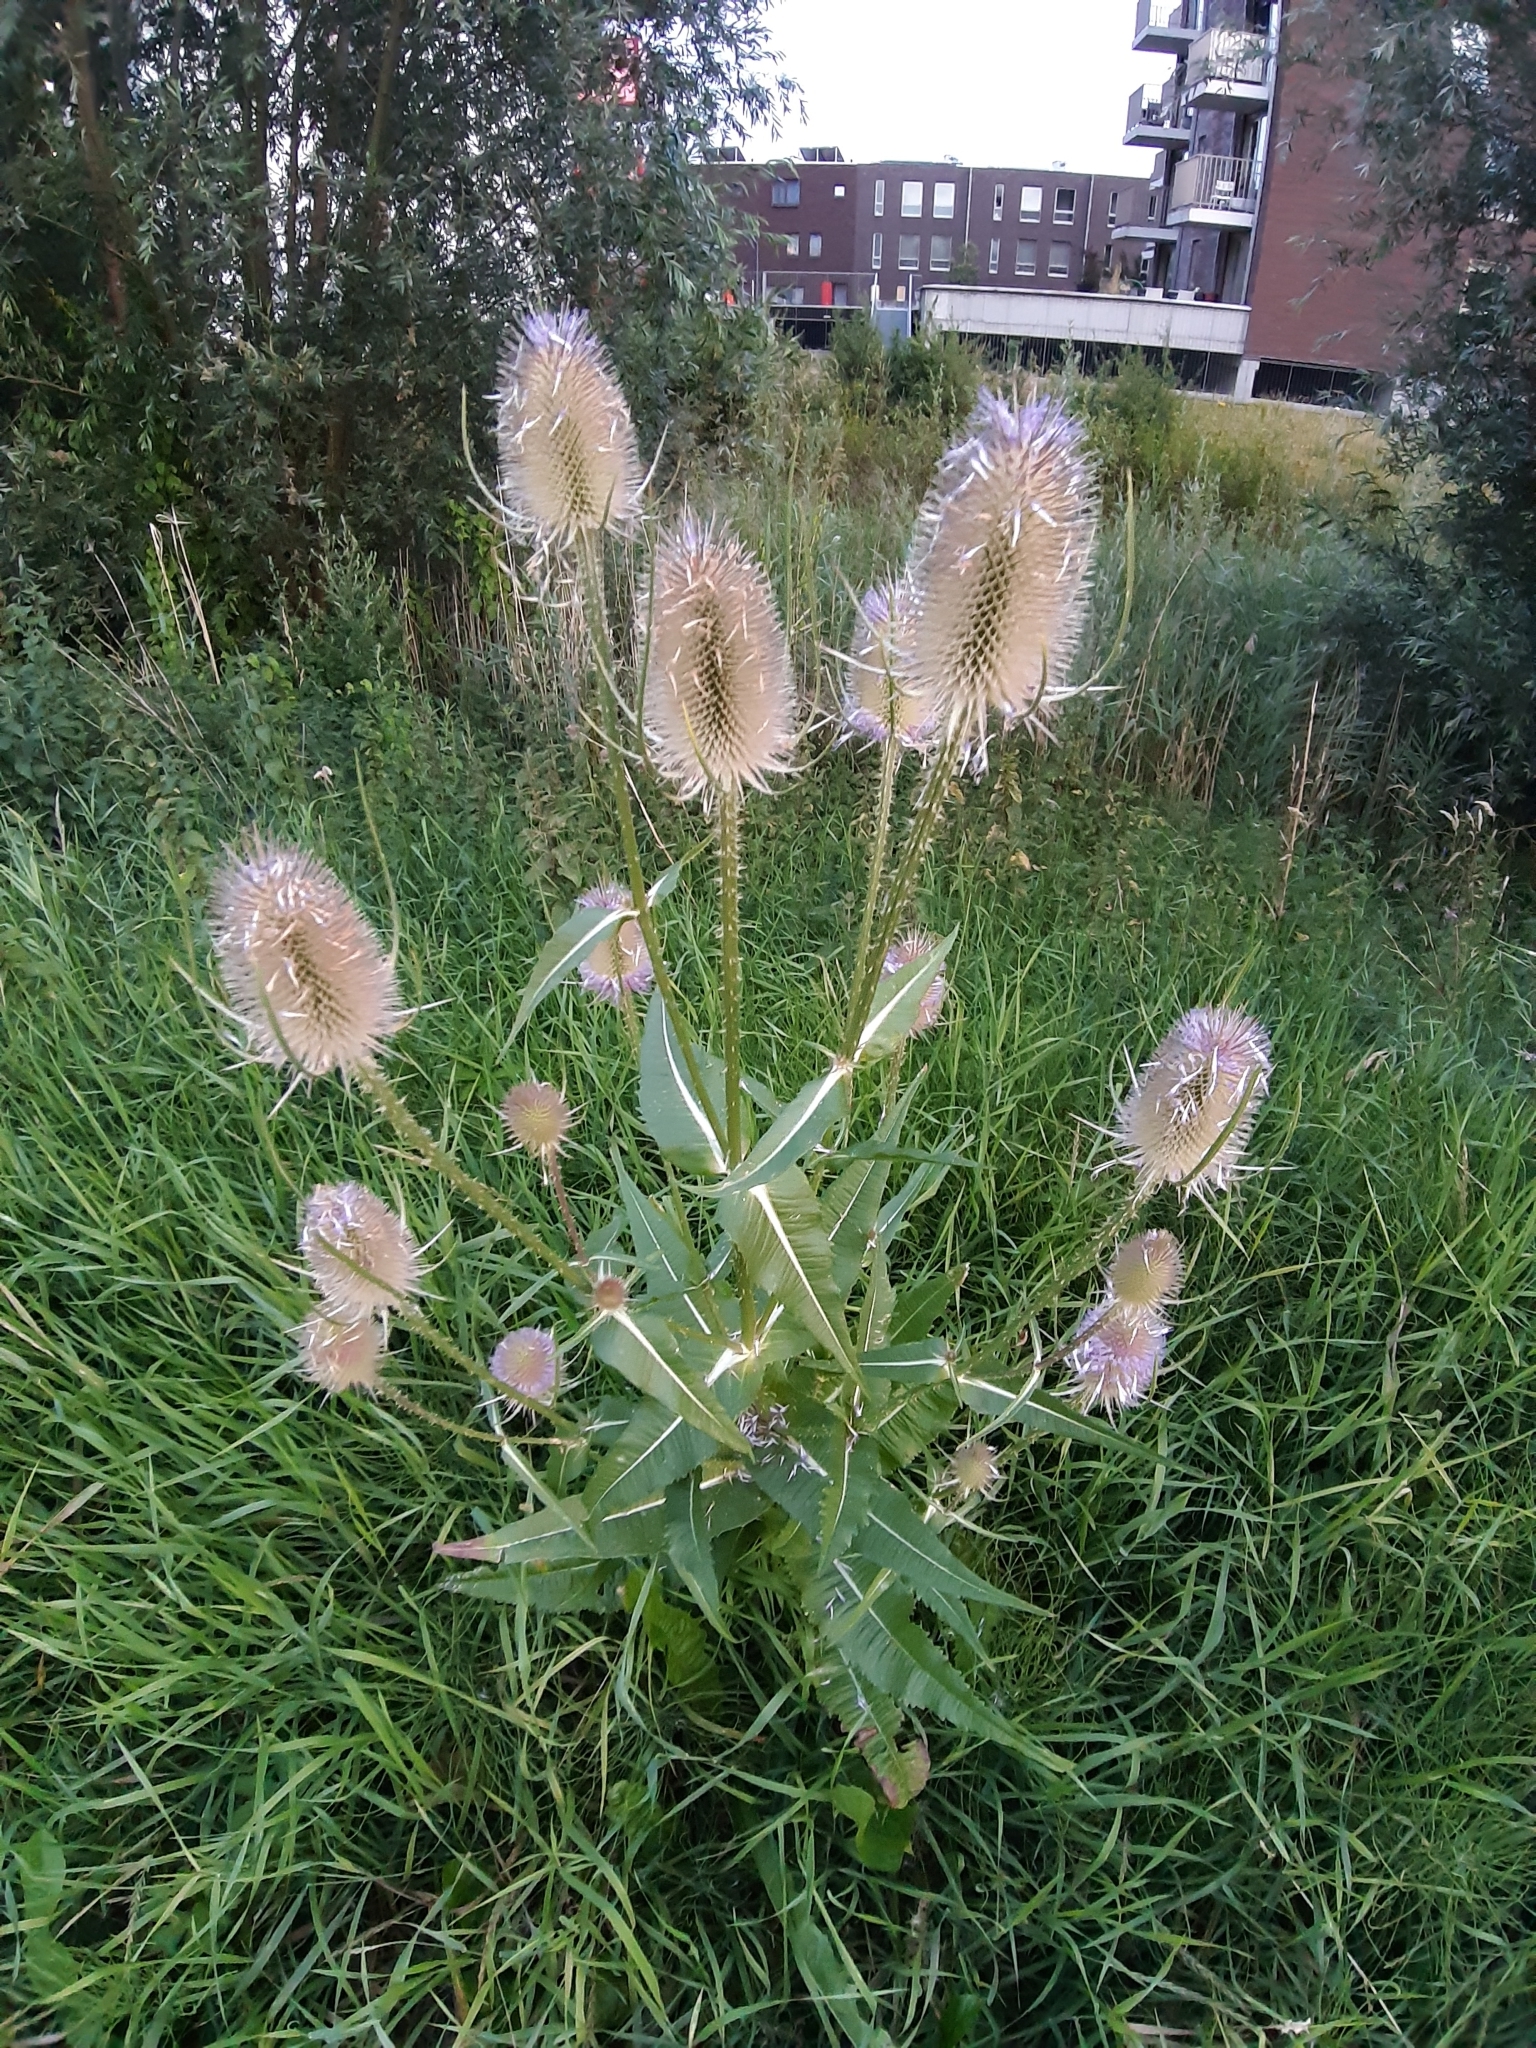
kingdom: Plantae
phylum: Tracheophyta
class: Magnoliopsida
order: Dipsacales
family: Caprifoliaceae
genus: Dipsacus
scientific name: Dipsacus fullonum
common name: Teasel
